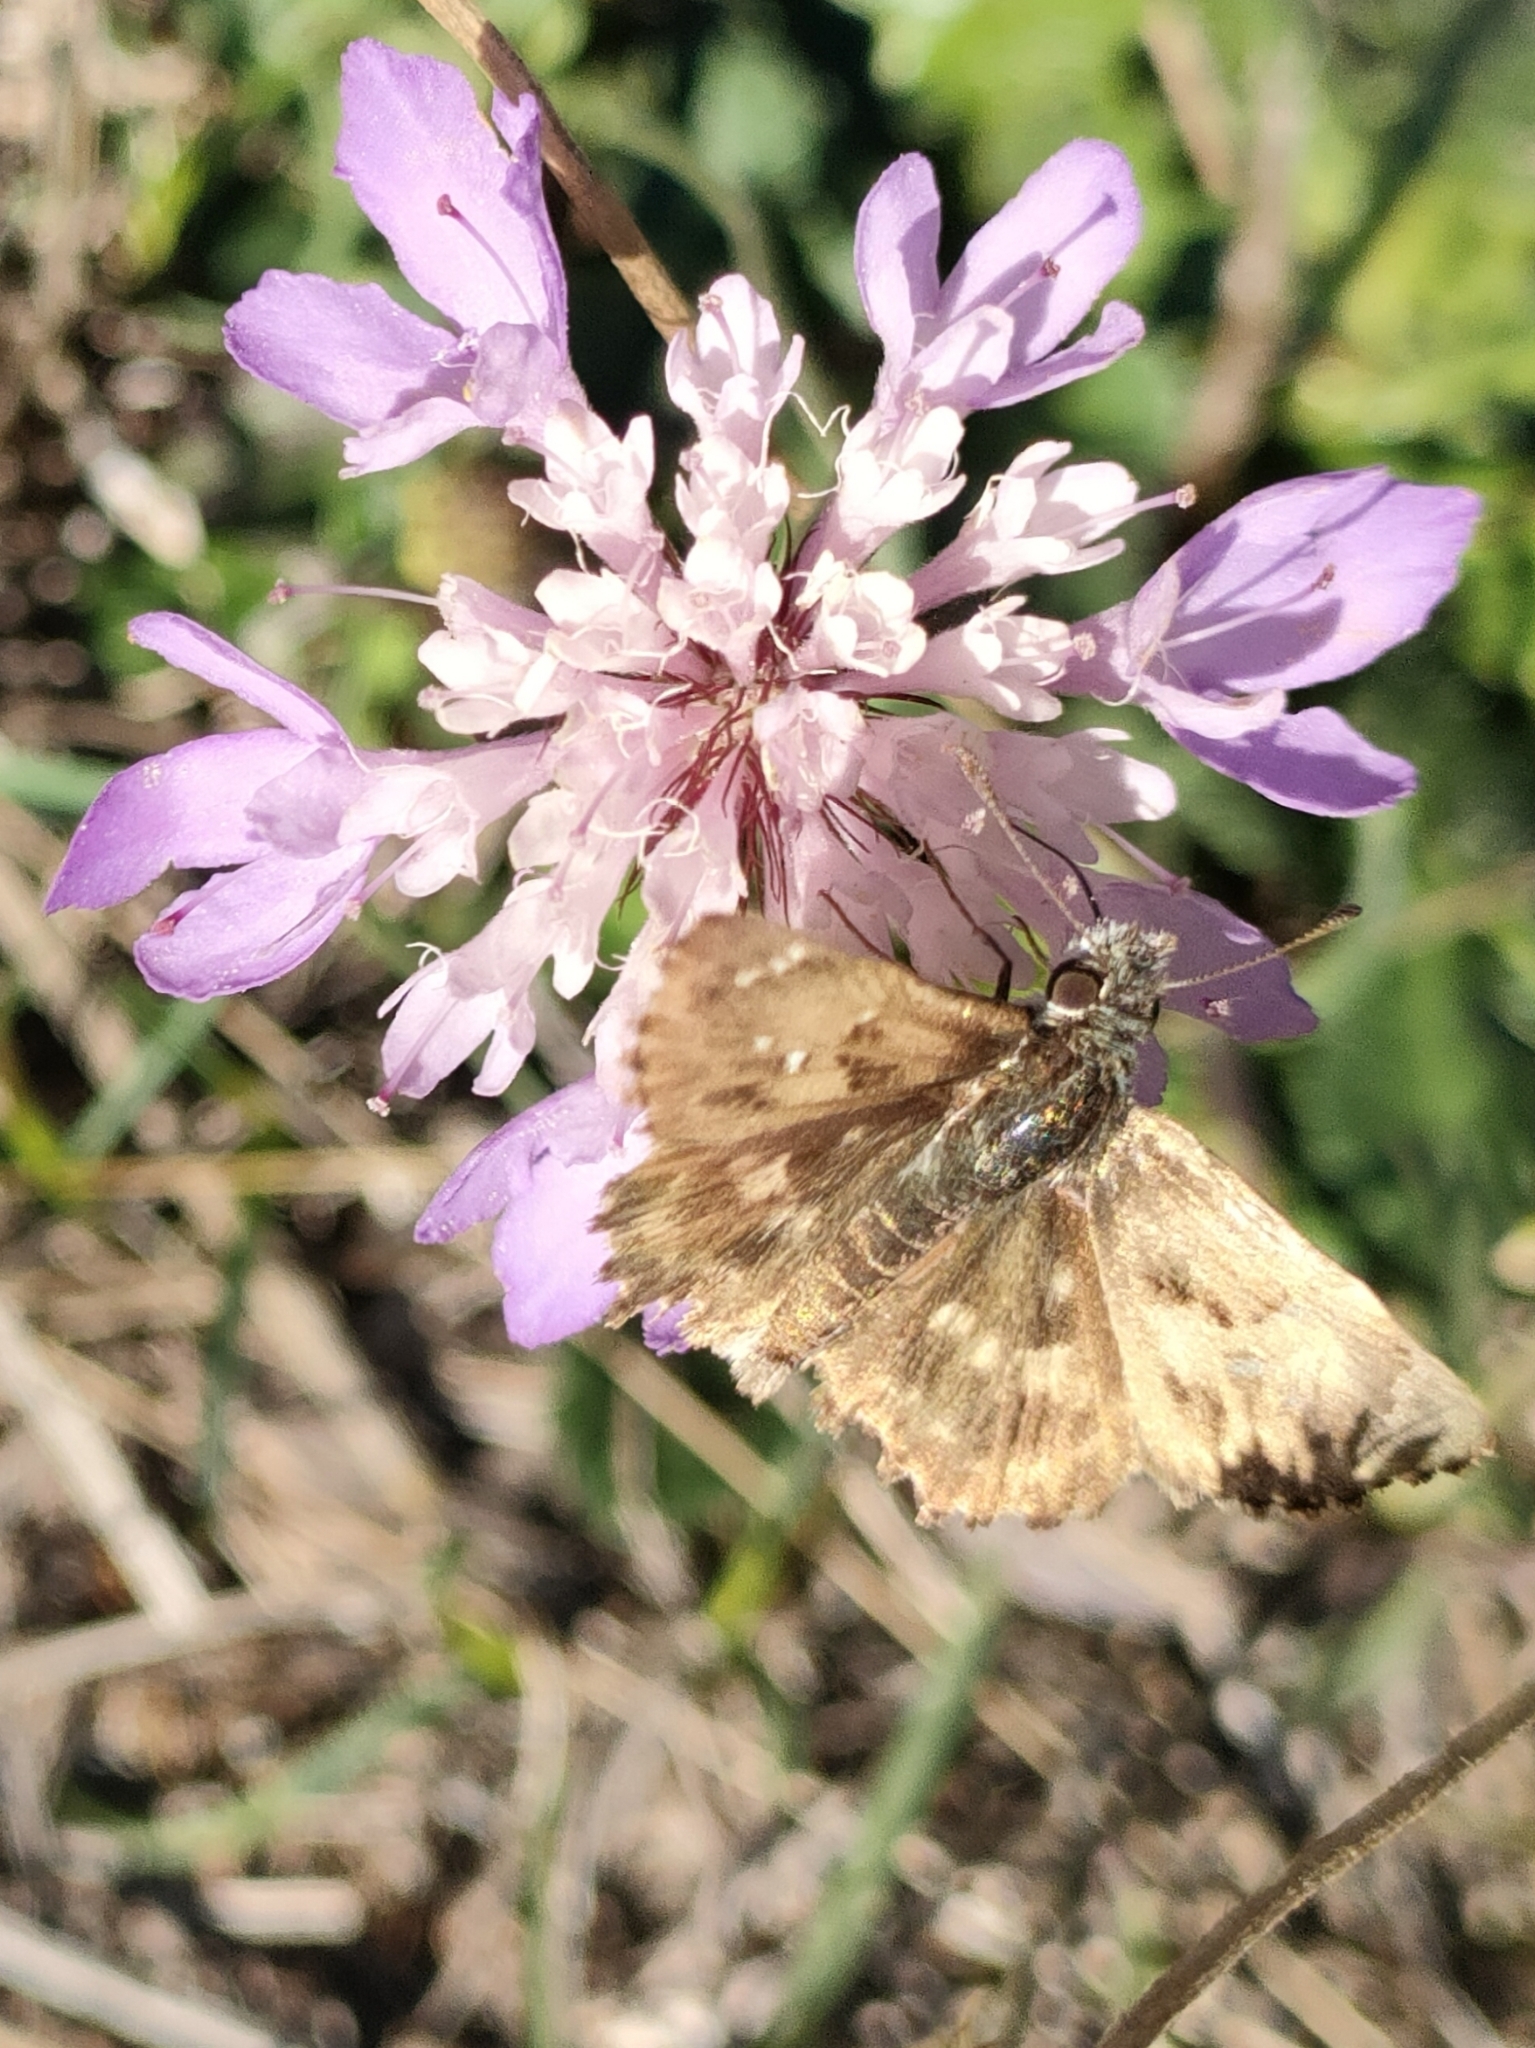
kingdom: Animalia
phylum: Arthropoda
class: Insecta
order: Lepidoptera
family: Hesperiidae
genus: Carcharodus
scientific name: Carcharodus alceae
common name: Mallow skipper
